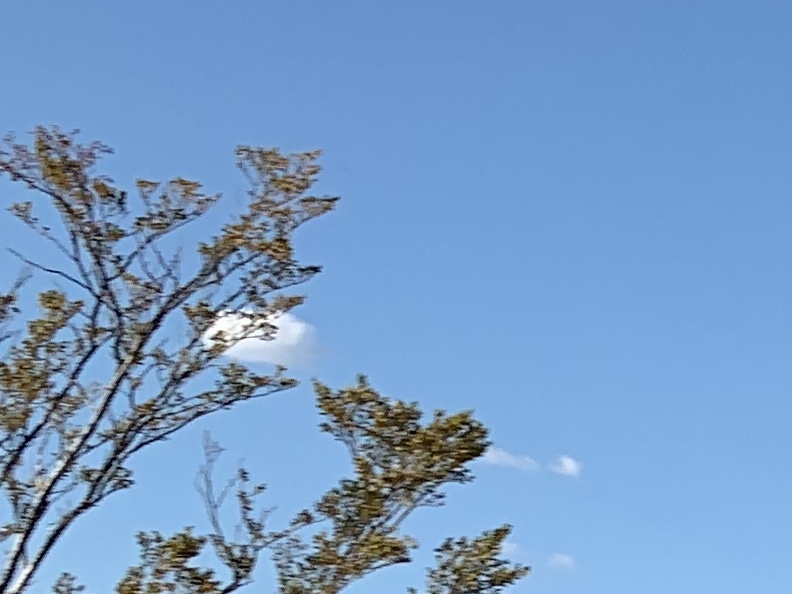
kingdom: Plantae
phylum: Tracheophyta
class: Magnoliopsida
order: Zygophyllales
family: Zygophyllaceae
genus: Larrea
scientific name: Larrea tridentata
